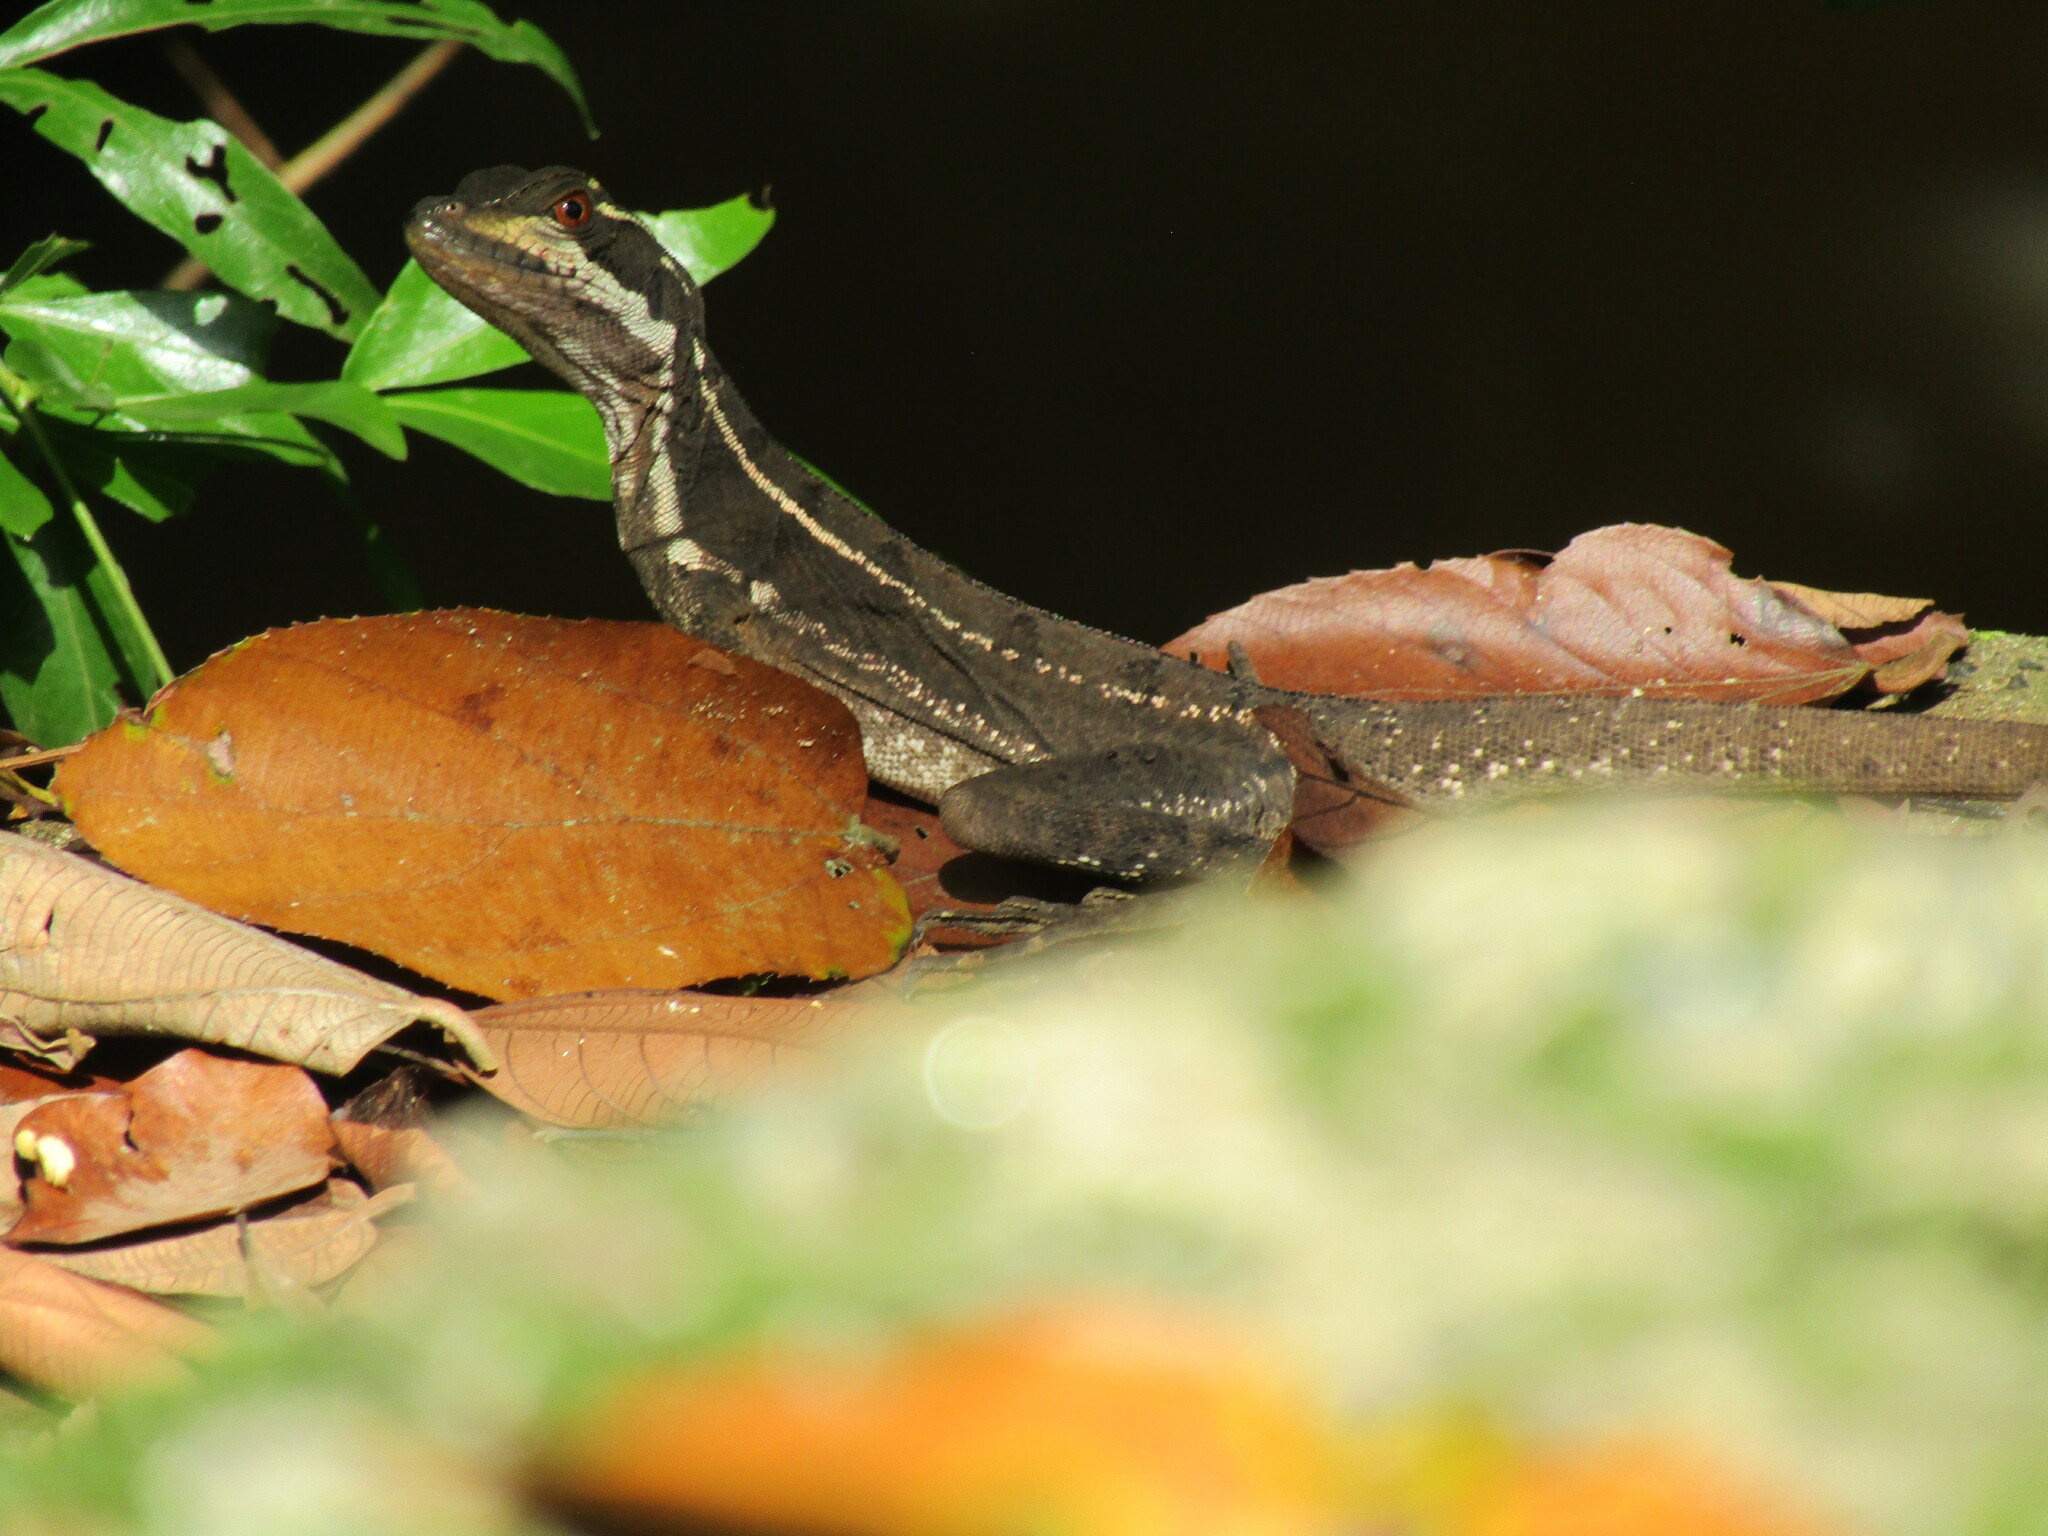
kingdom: Animalia
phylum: Chordata
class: Squamata
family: Corytophanidae
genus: Basiliscus
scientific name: Basiliscus basiliscus
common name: Common basilisk
